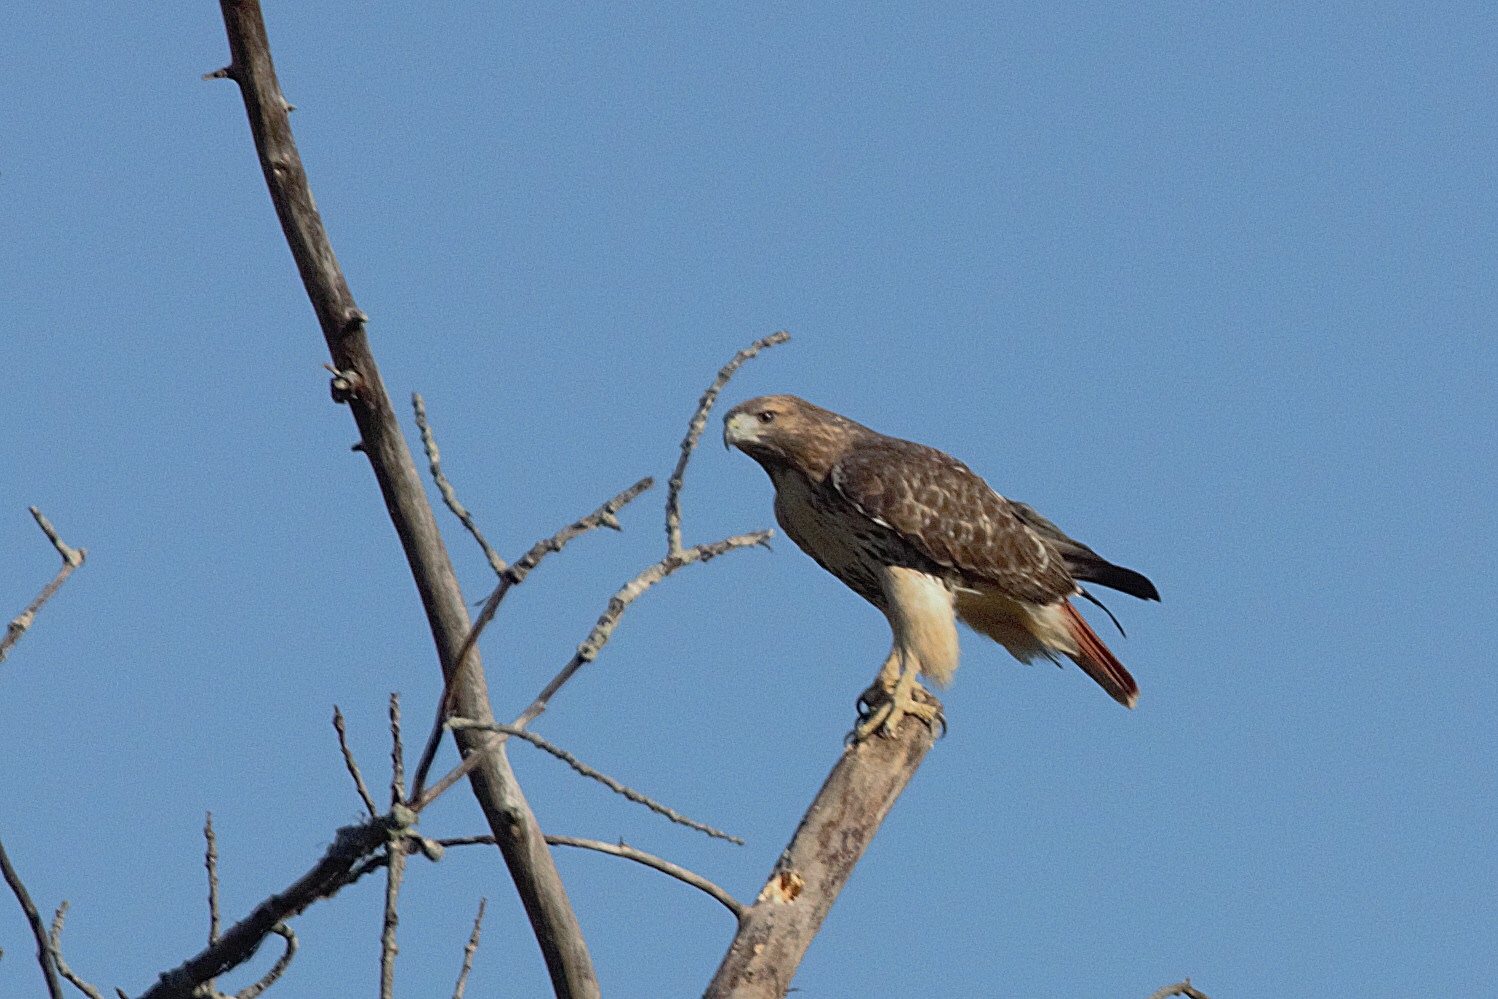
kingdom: Animalia
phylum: Chordata
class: Aves
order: Accipitriformes
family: Accipitridae
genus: Buteo
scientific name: Buteo jamaicensis
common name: Red-tailed hawk
